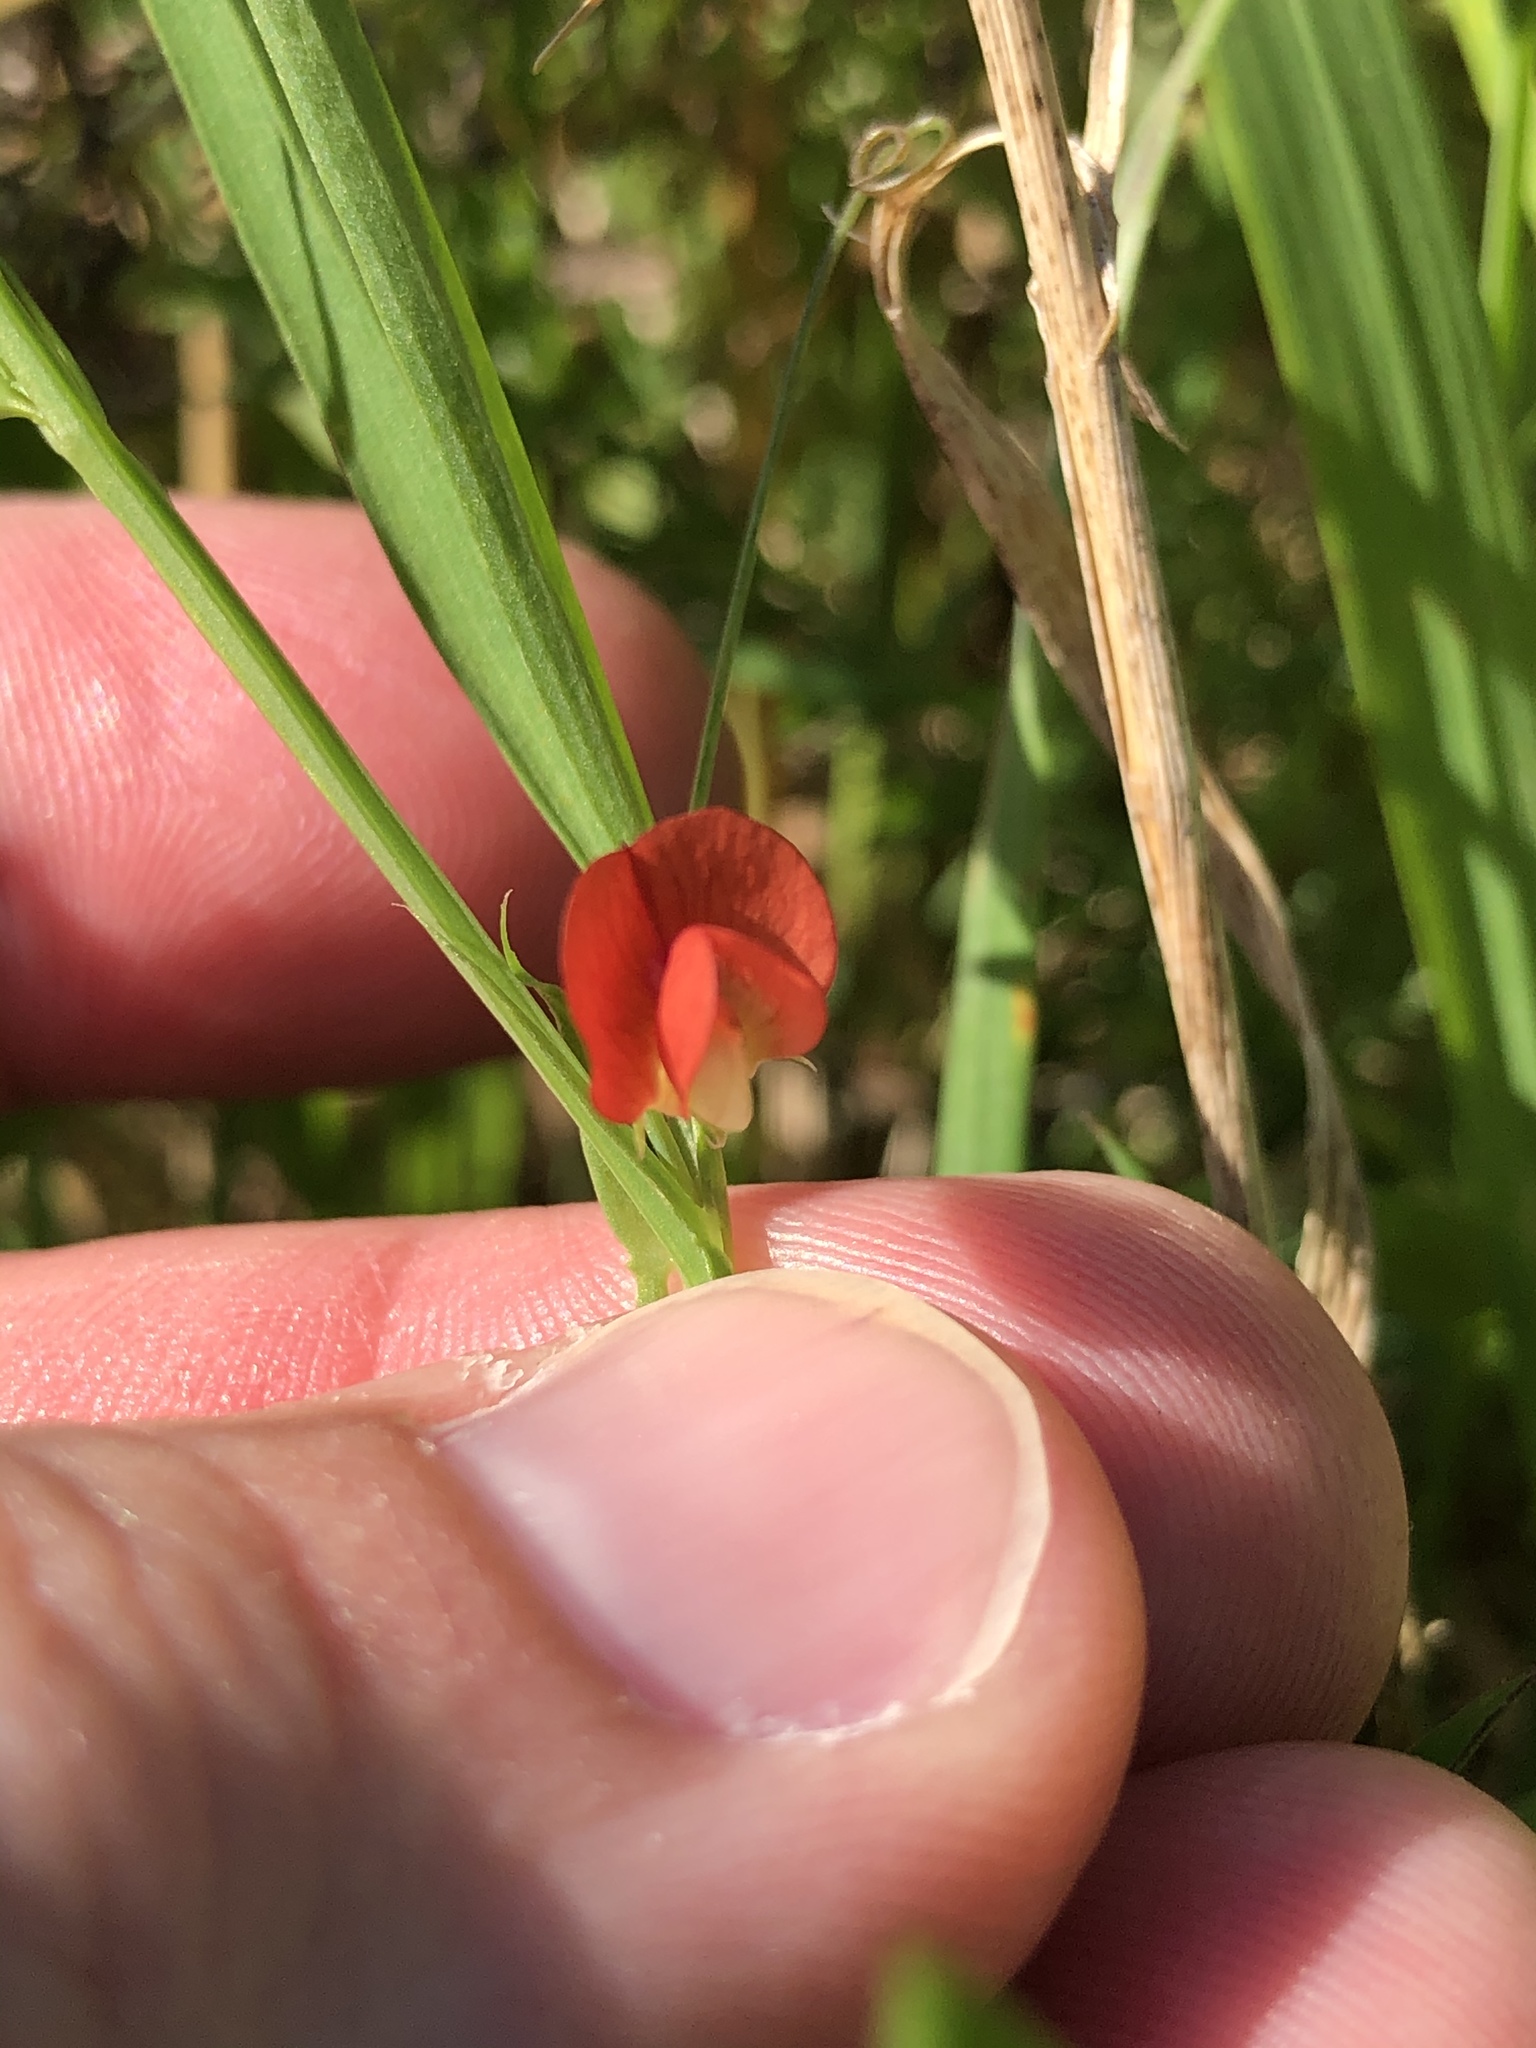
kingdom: Plantae
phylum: Tracheophyta
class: Magnoliopsida
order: Fabales
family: Fabaceae
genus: Lathyrus
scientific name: Lathyrus sphaericus
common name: Grass pea
